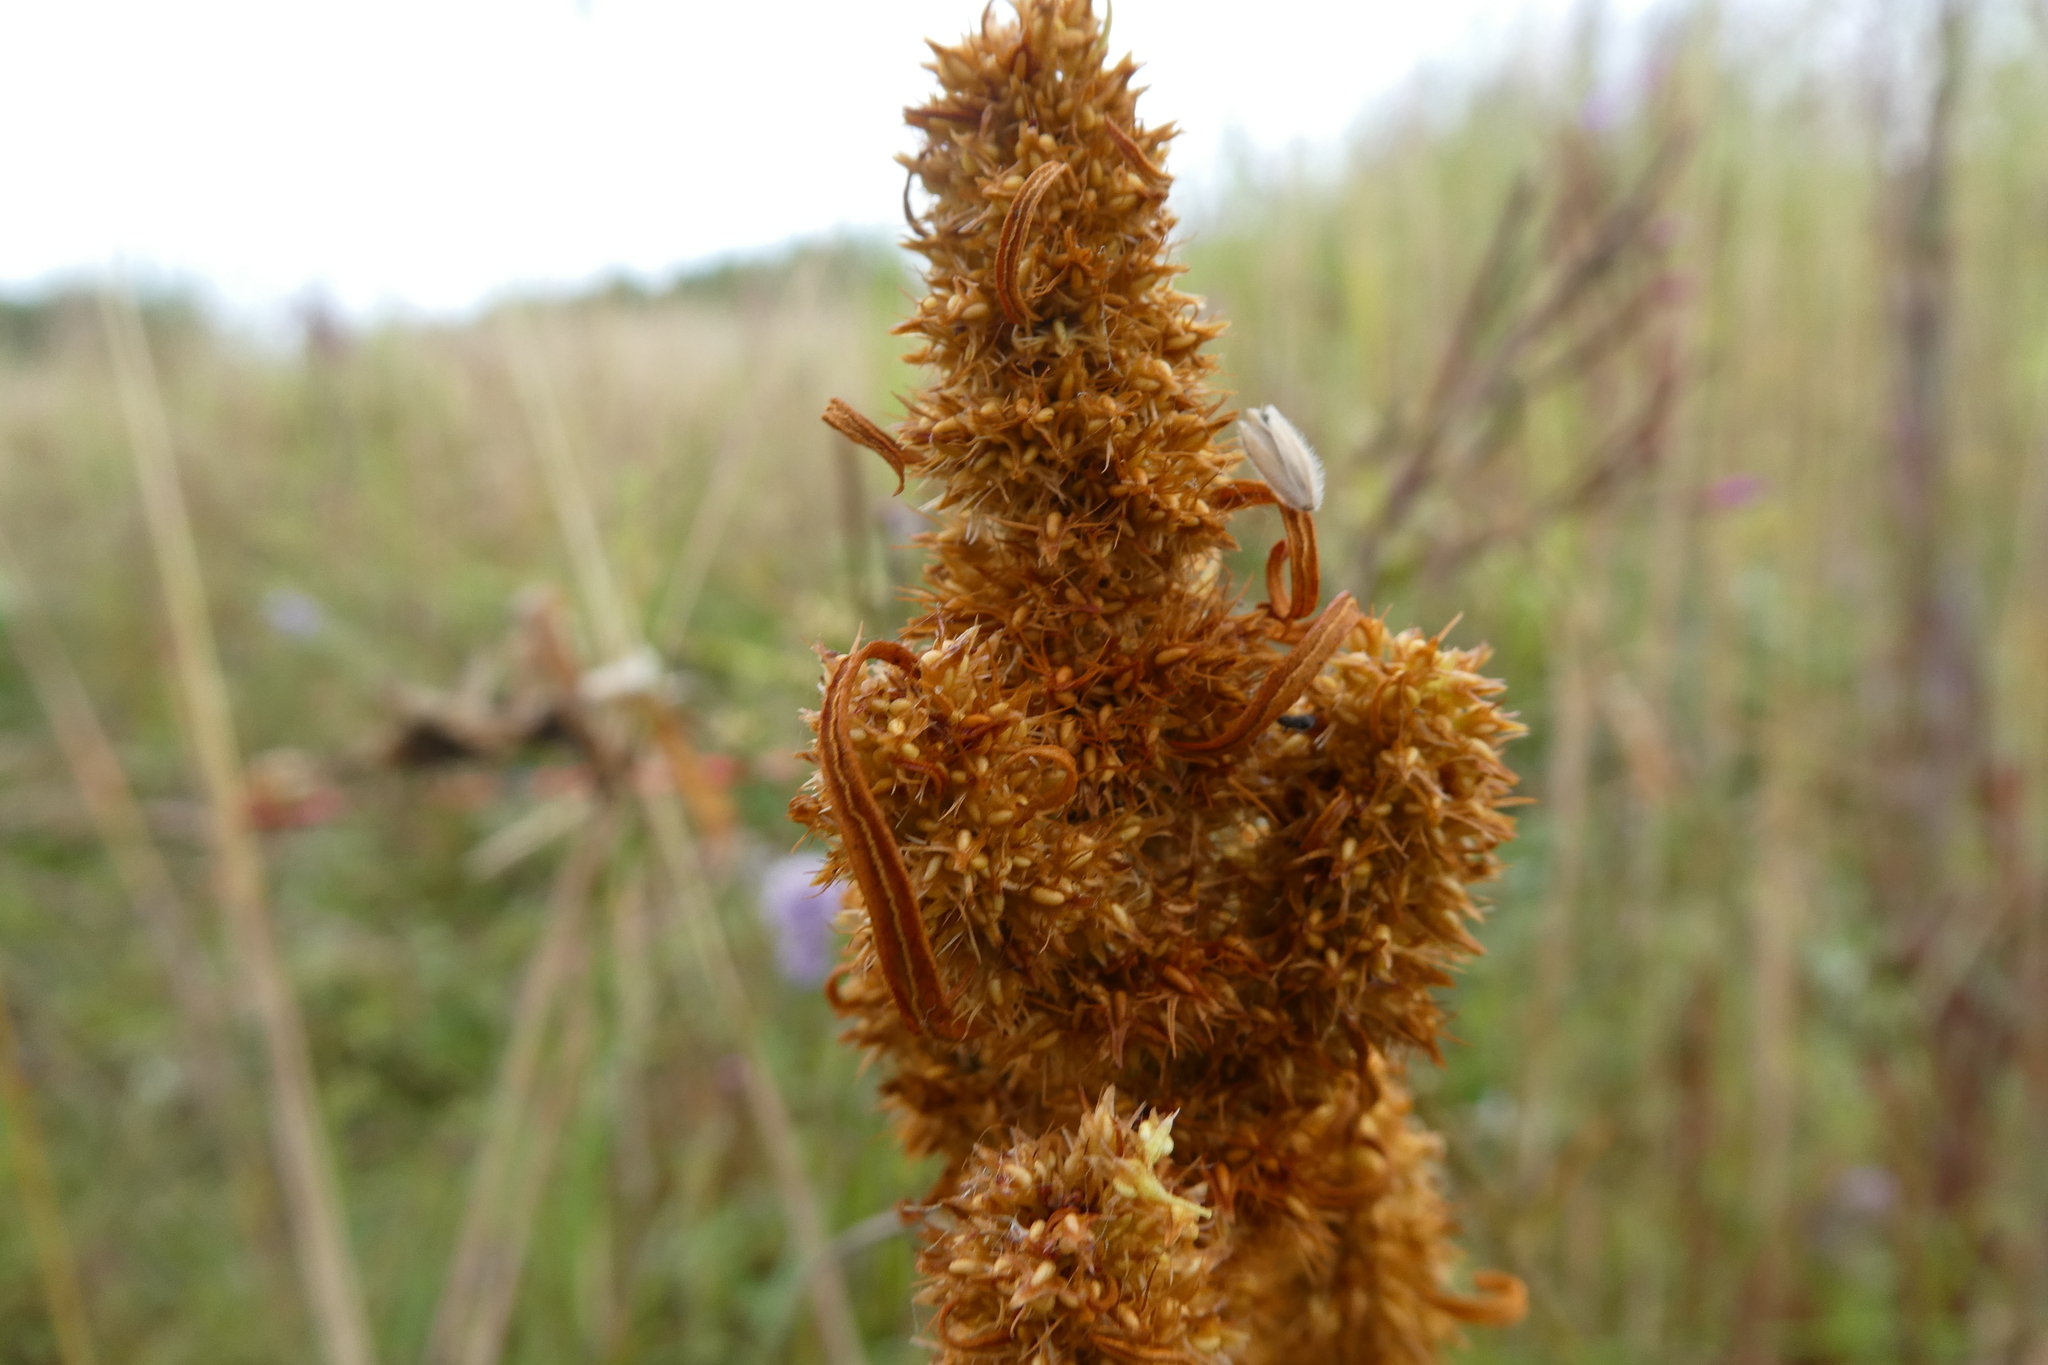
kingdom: Plantae
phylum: Tracheophyta
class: Magnoliopsida
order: Caryophyllales
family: Polygonaceae
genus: Rumex
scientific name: Rumex maritimus
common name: Golden dock
